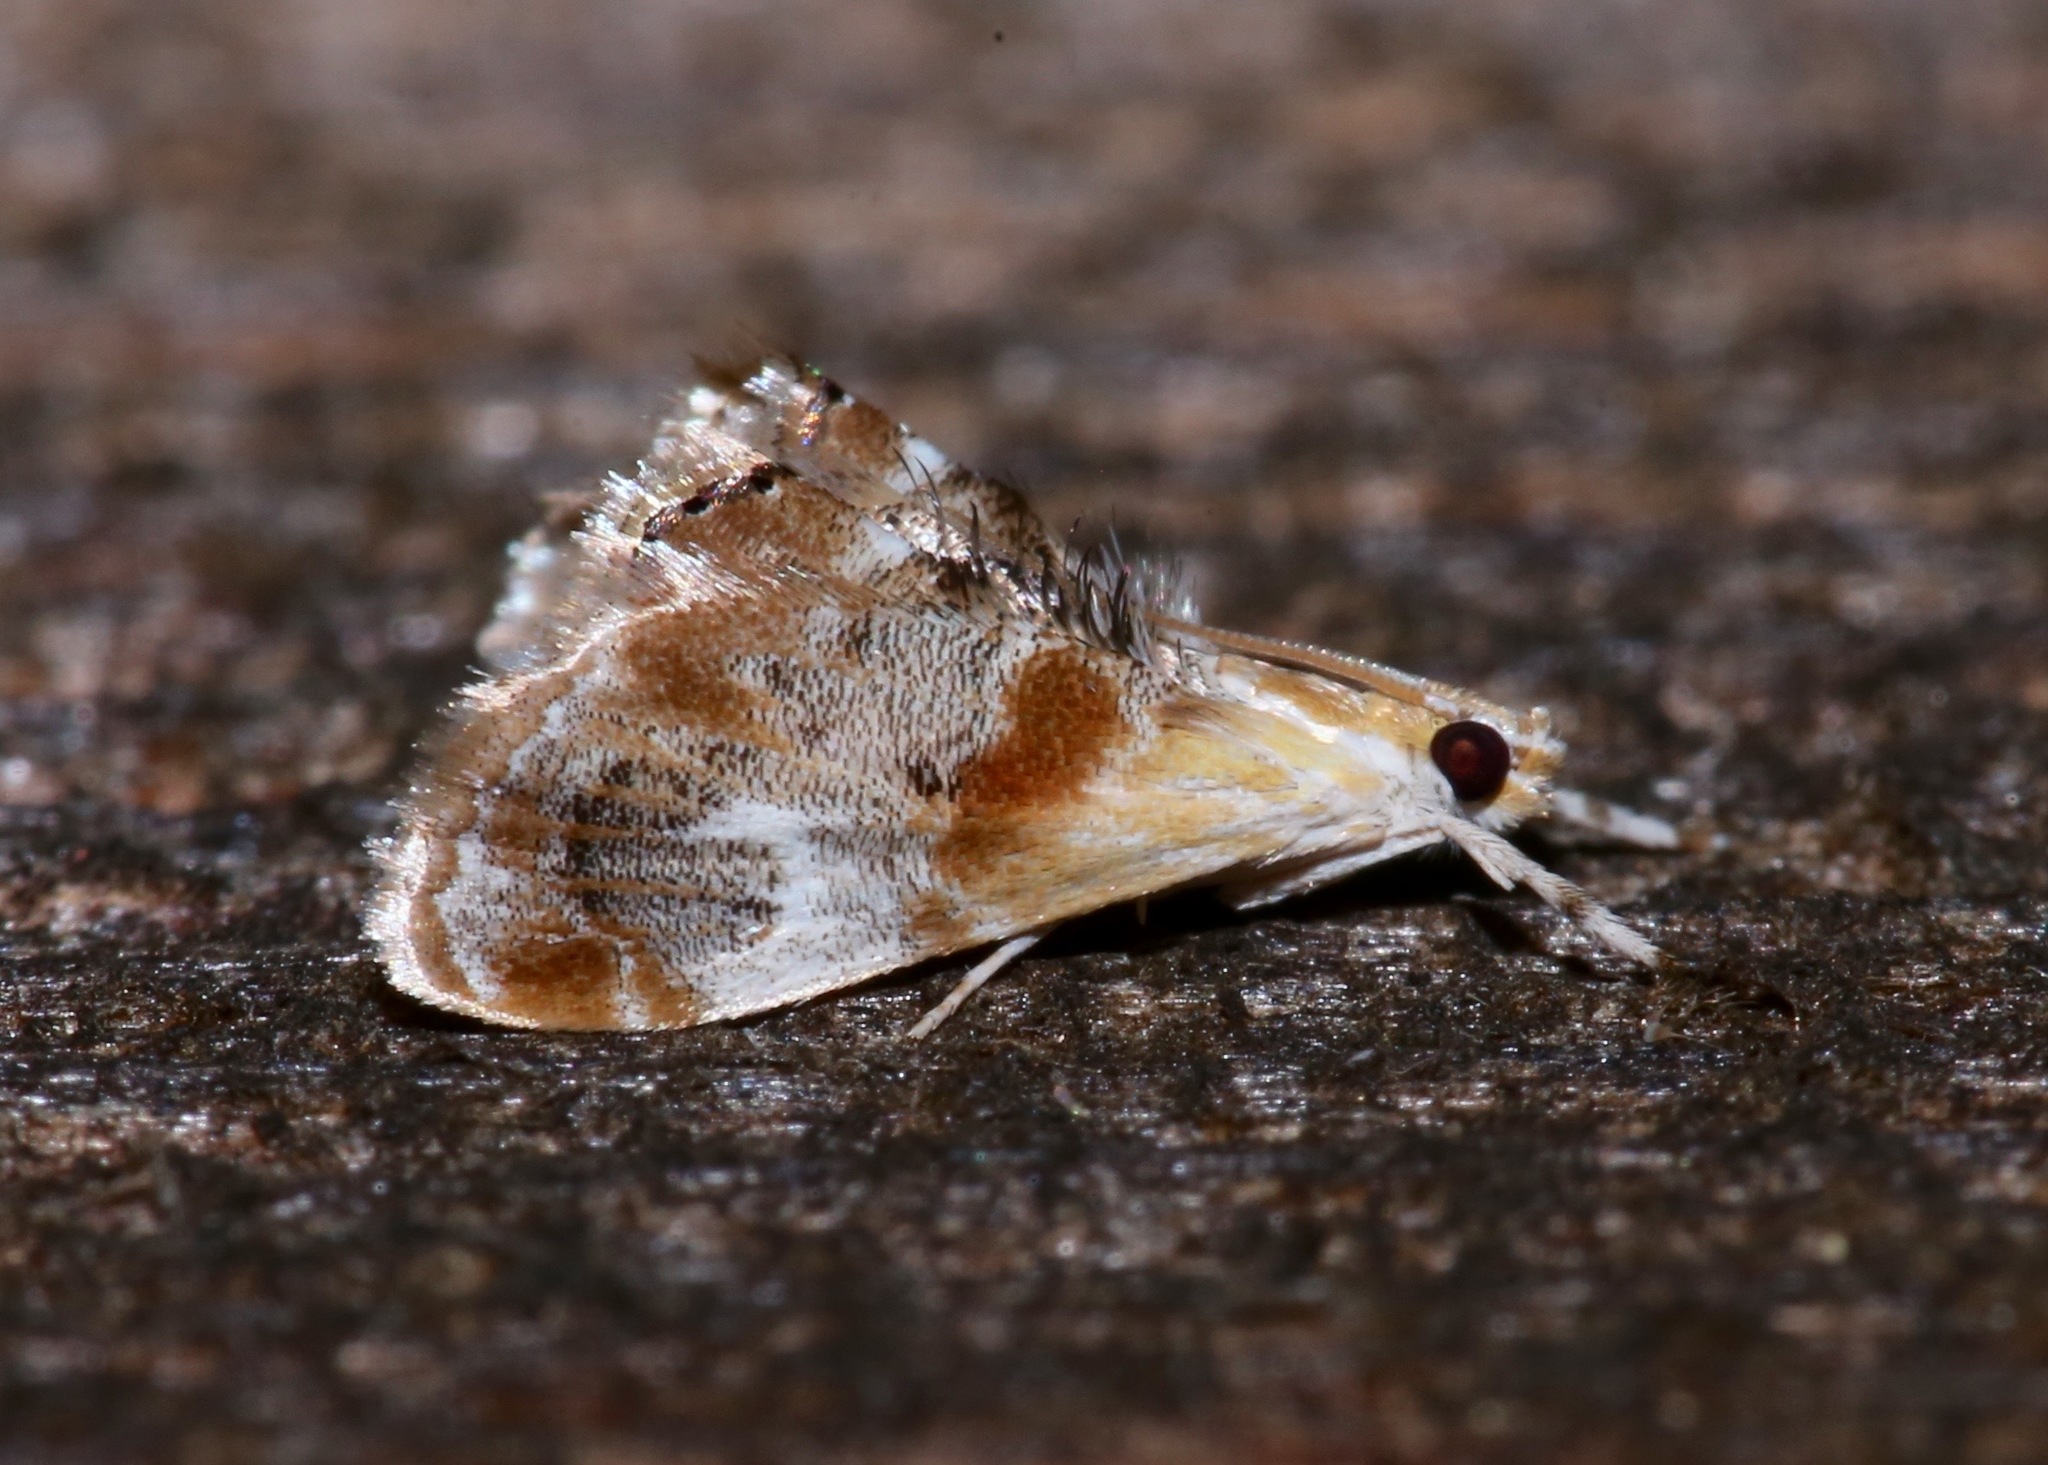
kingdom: Animalia
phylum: Arthropoda
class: Insecta
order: Lepidoptera
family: Crambidae
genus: Dicymolomia
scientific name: Dicymolomia julianalis
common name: Julia's dicymolomia moth
